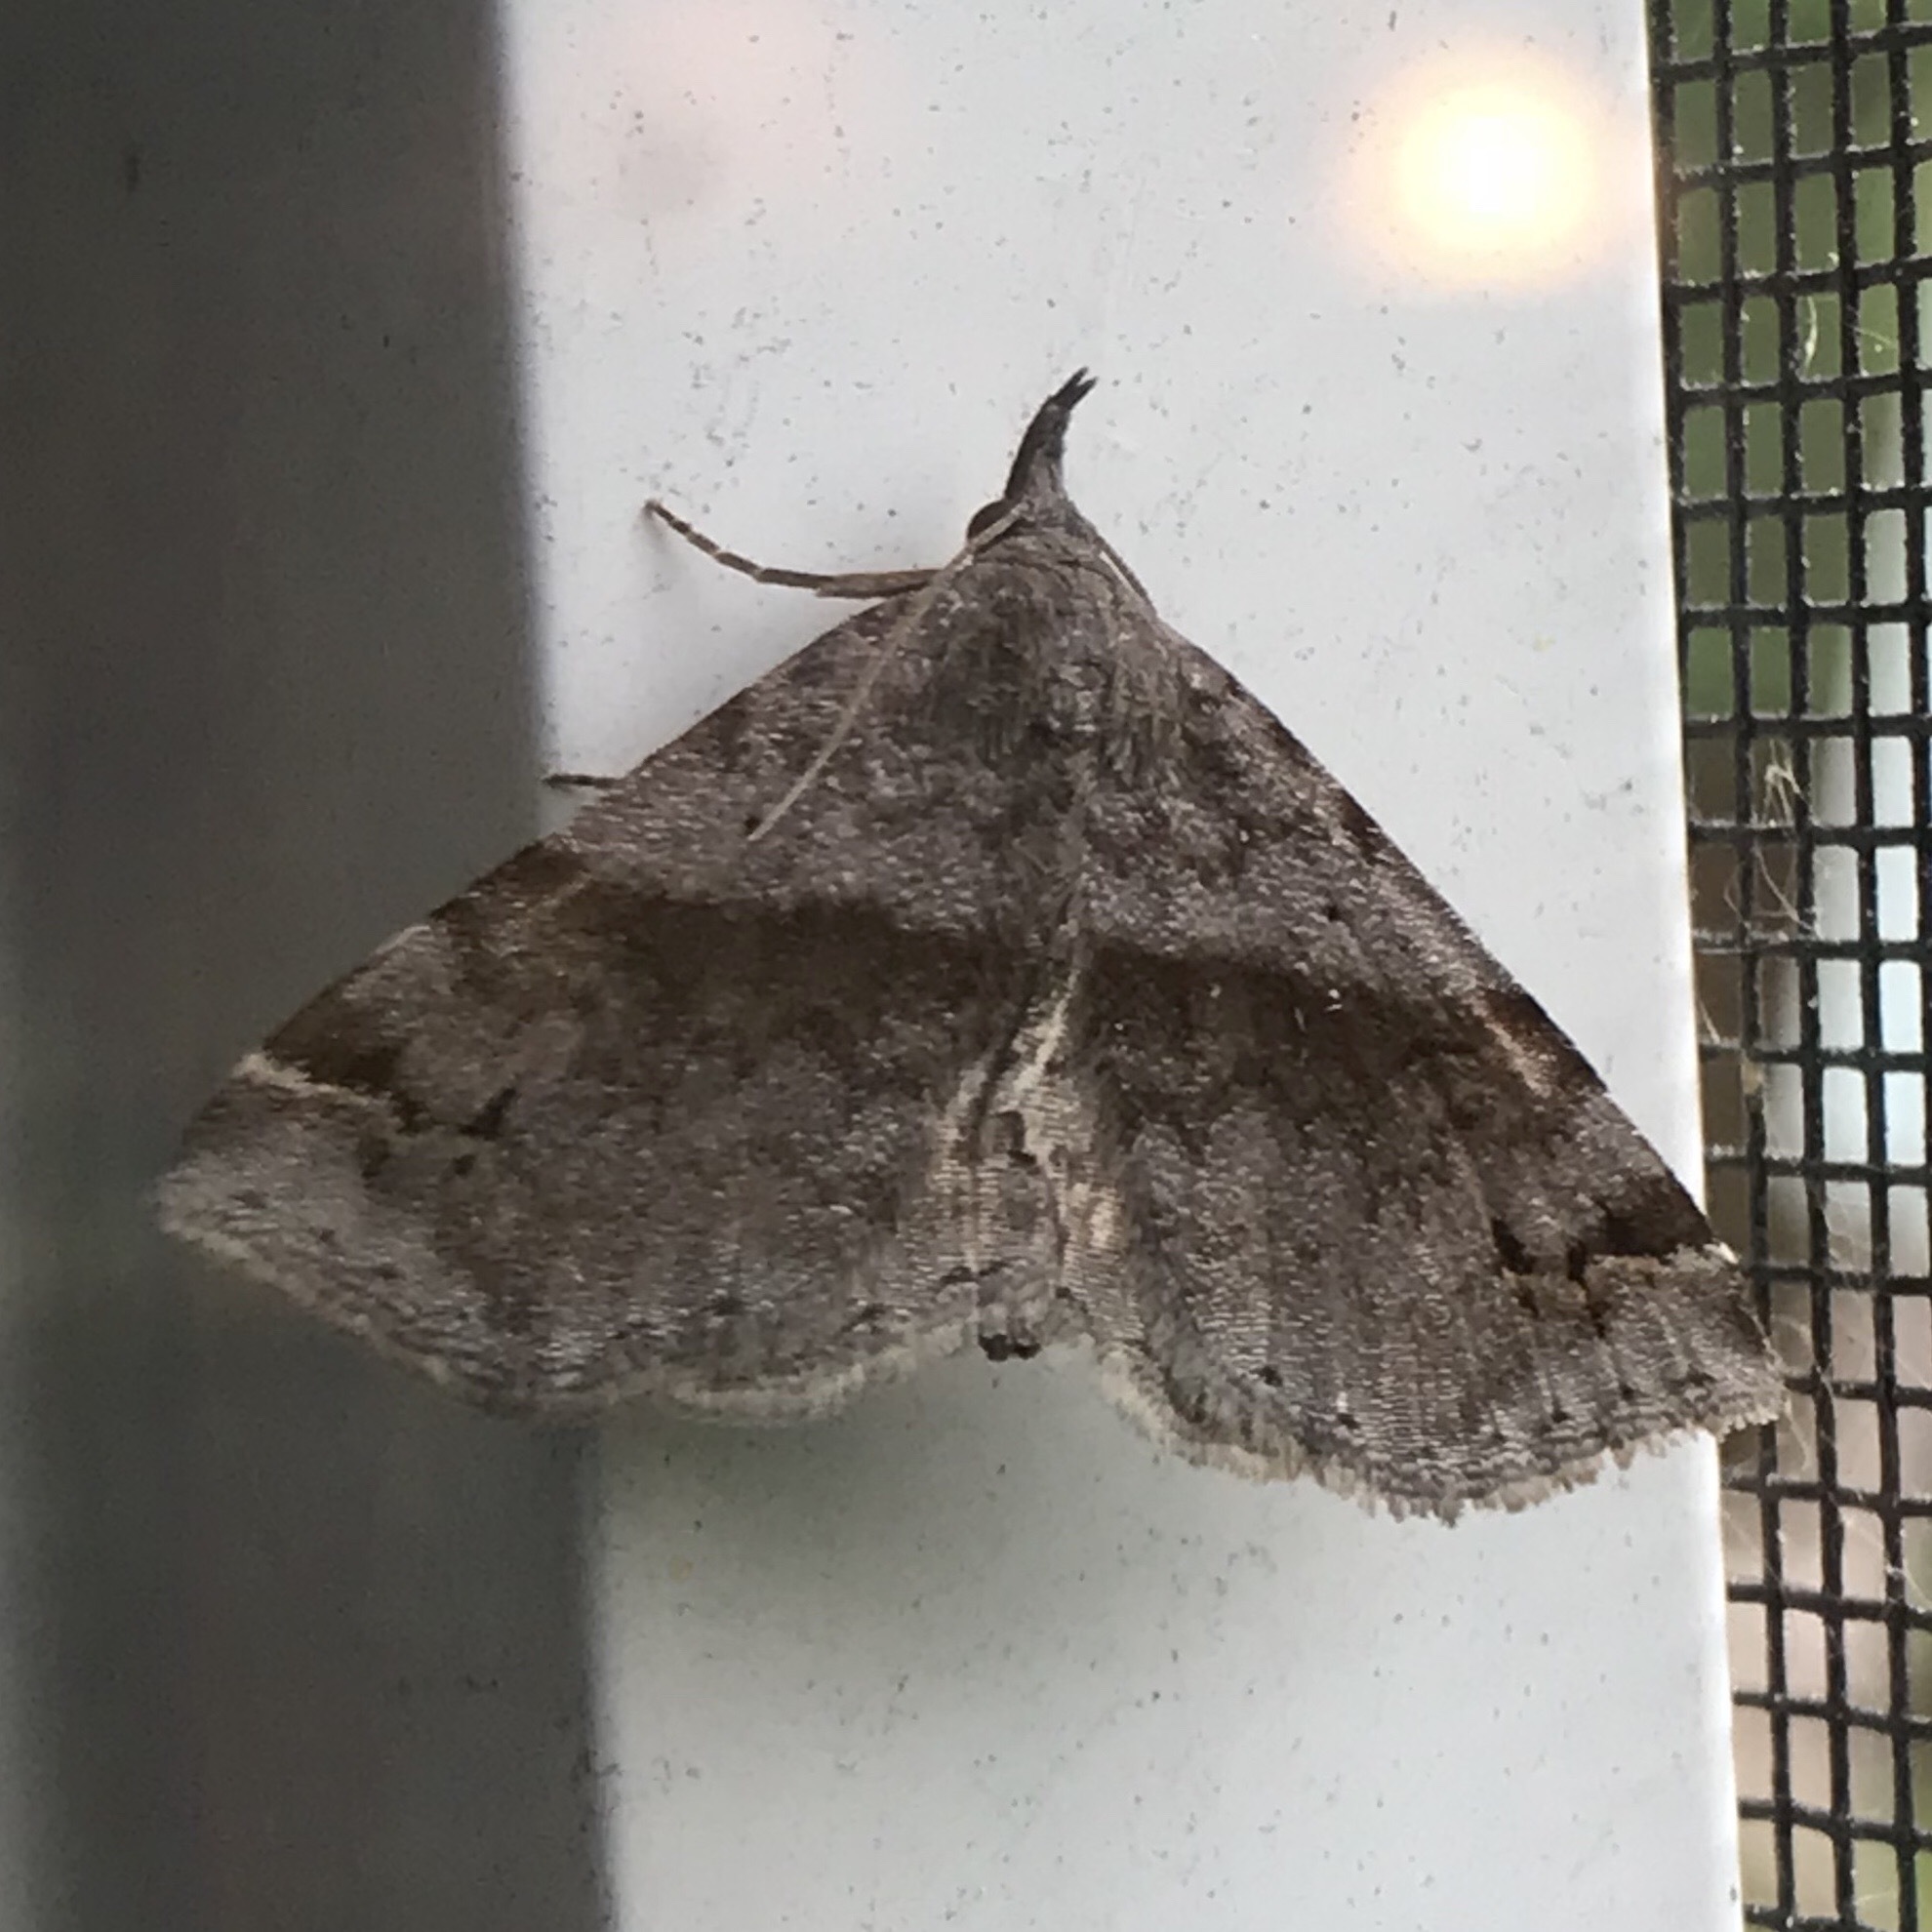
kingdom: Animalia
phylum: Arthropoda
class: Insecta
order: Lepidoptera
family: Erebidae
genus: Spargaloma
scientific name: Spargaloma sexpunctata
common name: Six-spotted gray
